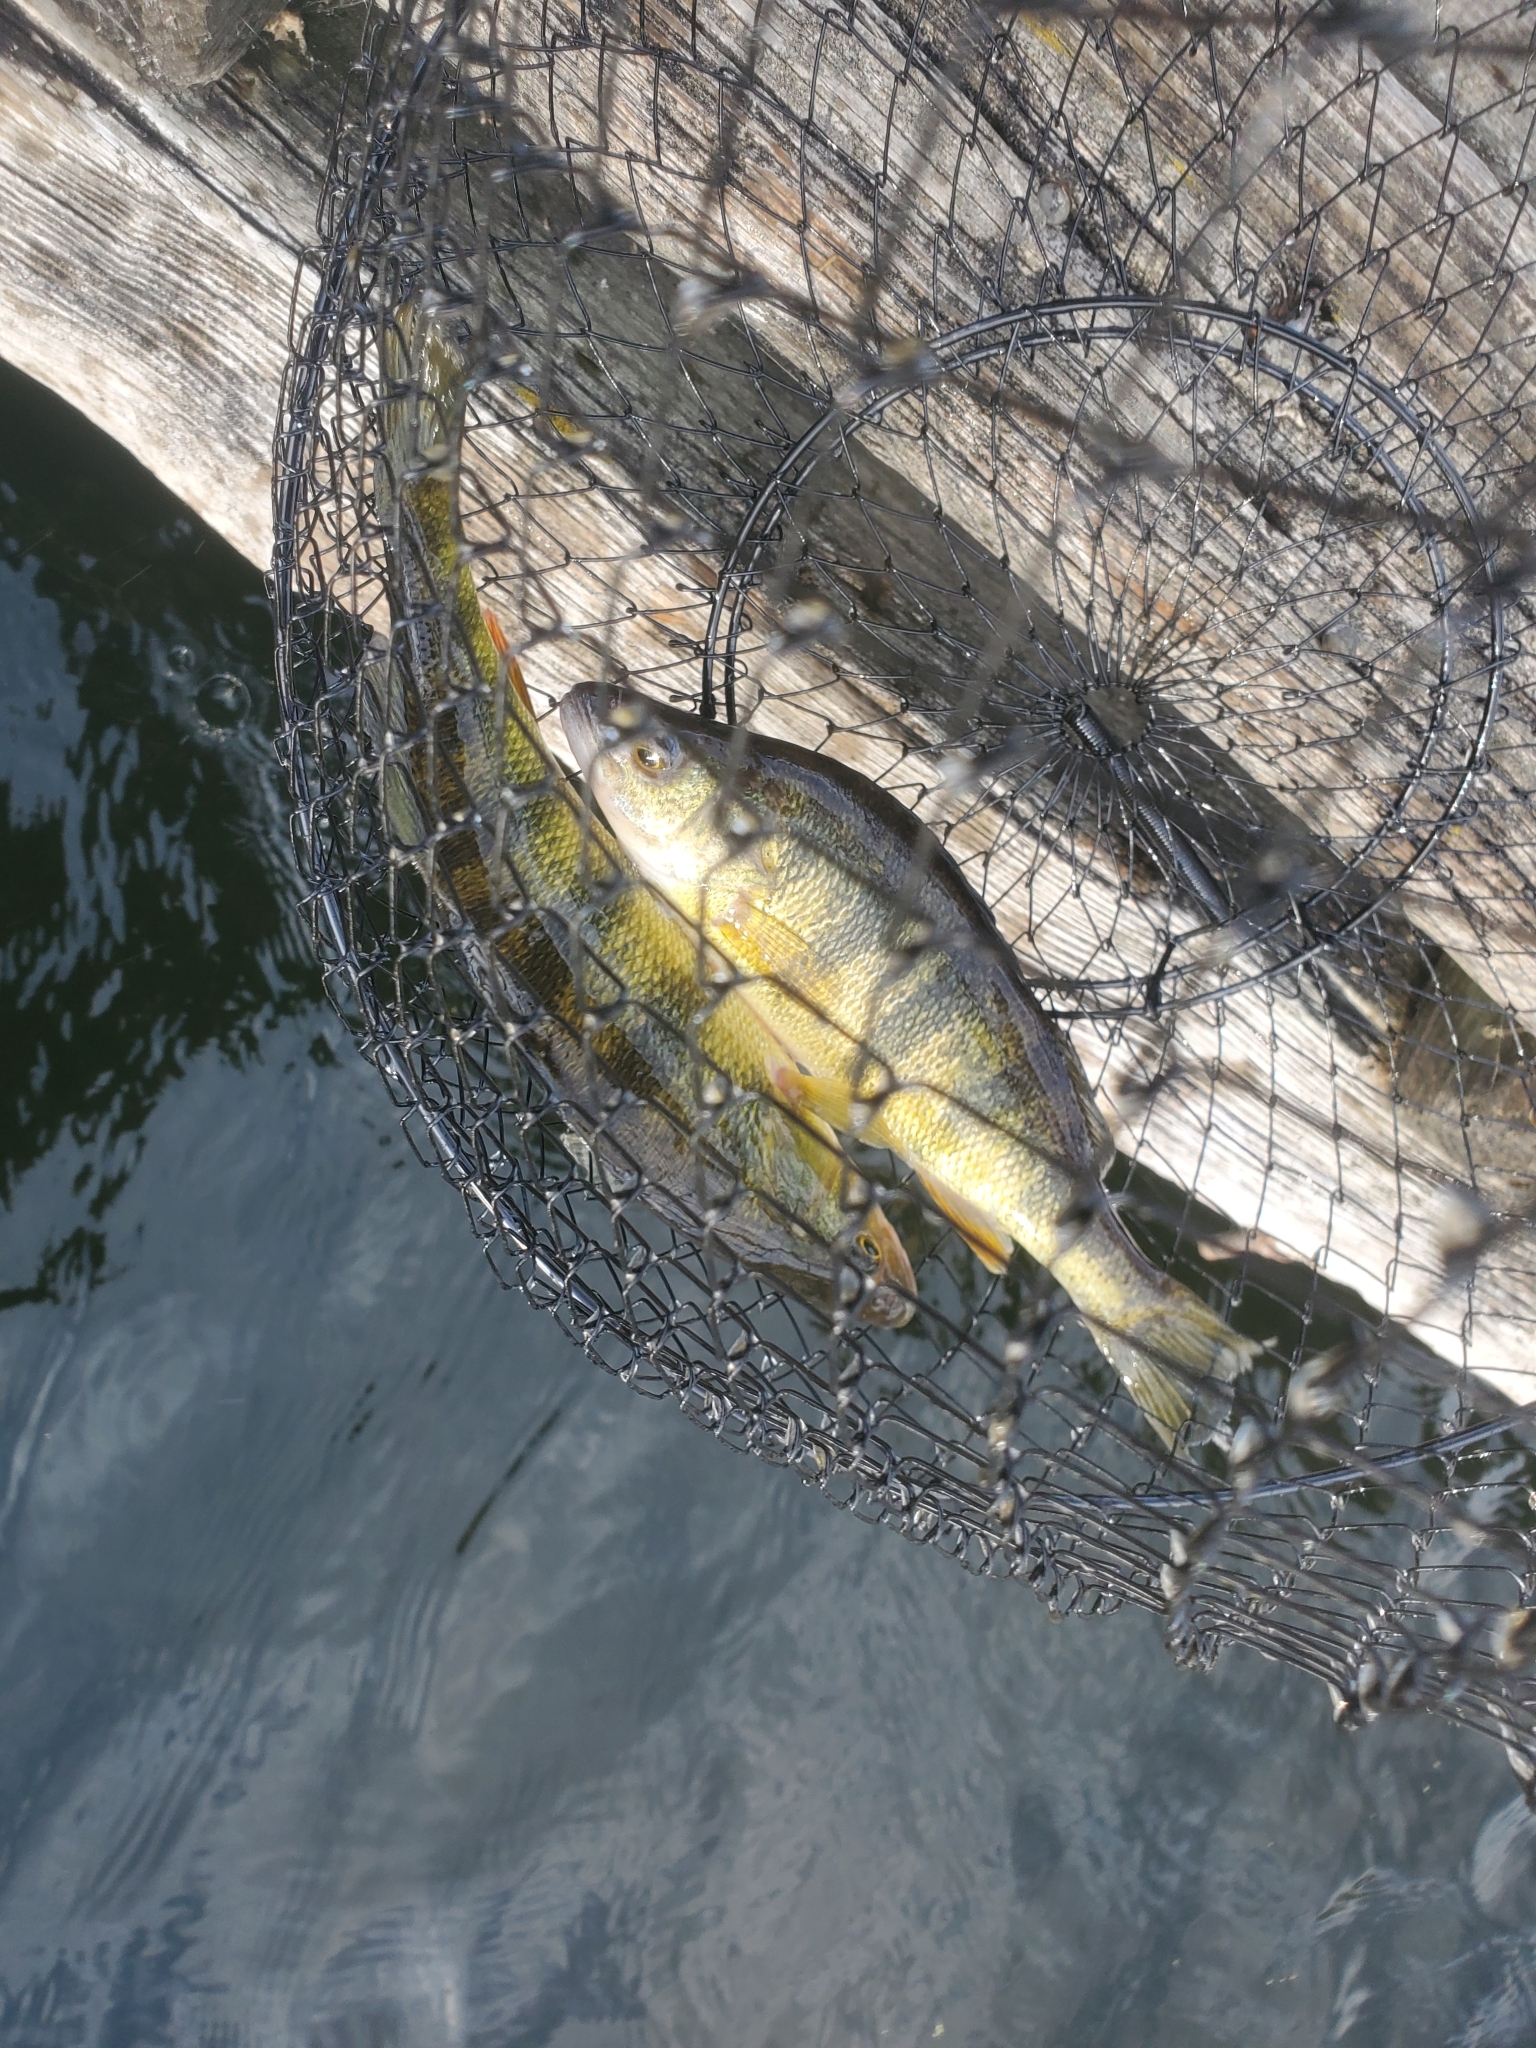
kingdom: Animalia
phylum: Chordata
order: Perciformes
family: Percidae
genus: Perca
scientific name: Perca flavescens
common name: Yellow perch
